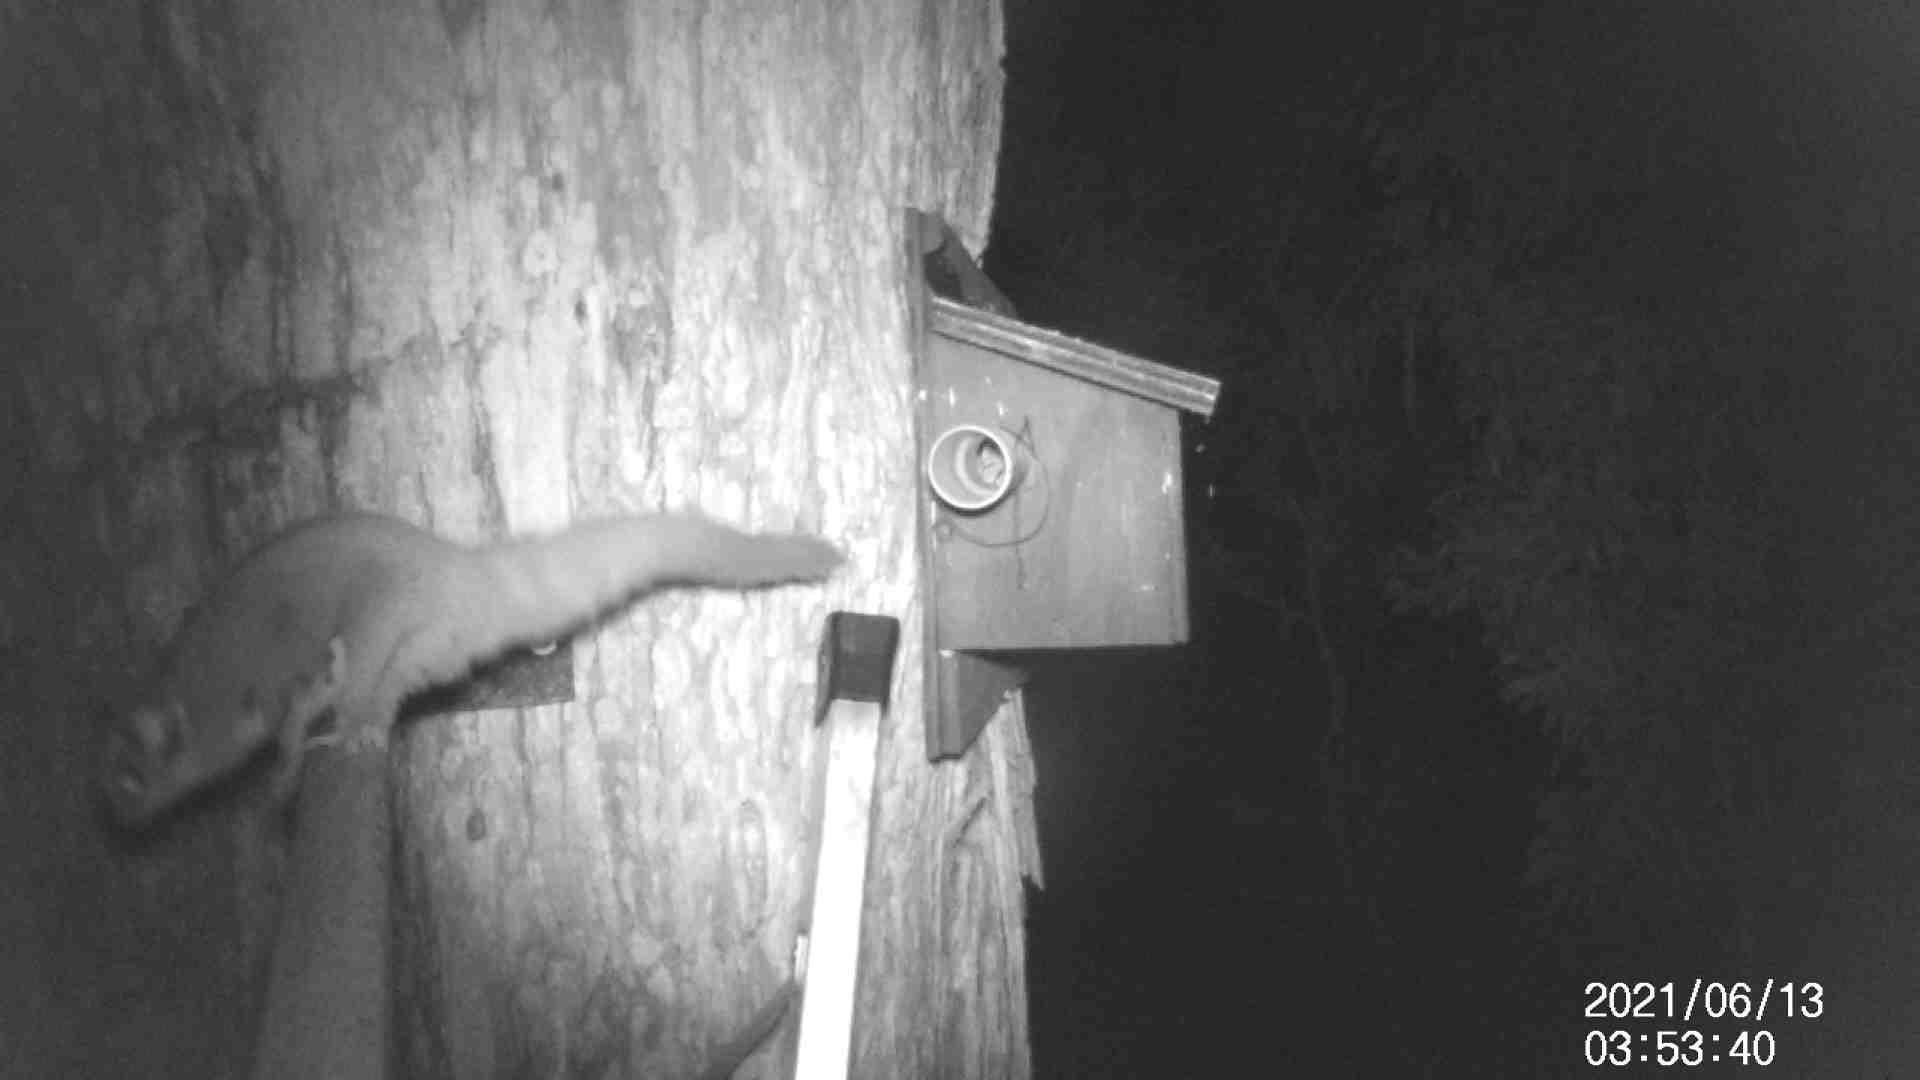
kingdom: Animalia
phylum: Chordata
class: Mammalia
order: Diprotodontia
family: Petauridae
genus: Petaurus
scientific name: Petaurus breviceps
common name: Sugar glider
